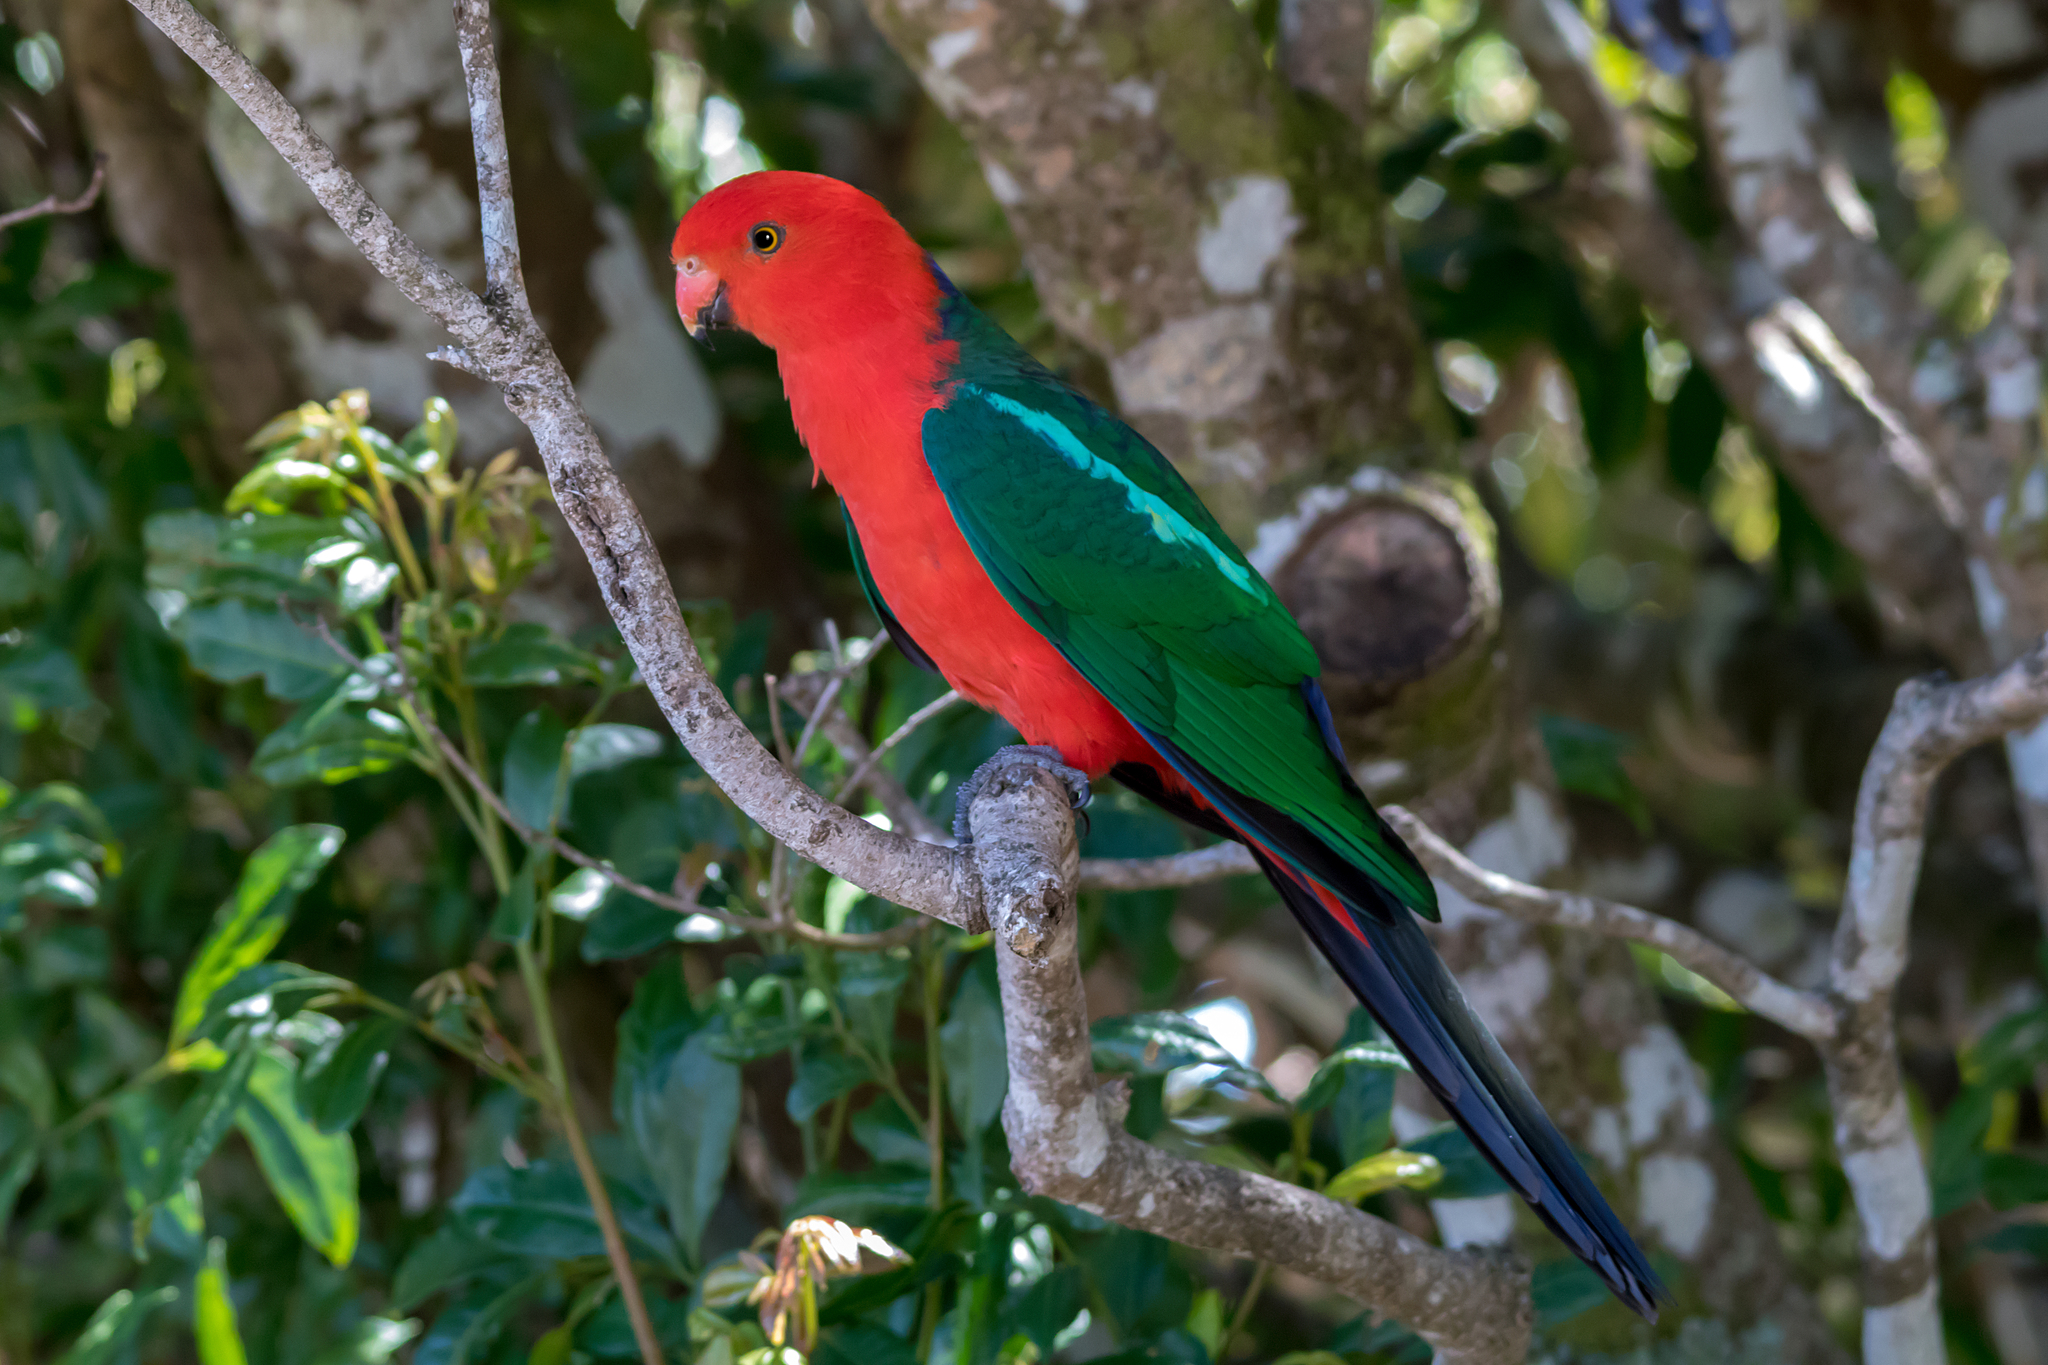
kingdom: Animalia
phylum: Chordata
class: Aves
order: Psittaciformes
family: Psittacidae
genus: Alisterus
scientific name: Alisterus scapularis
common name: Australian king parrot
